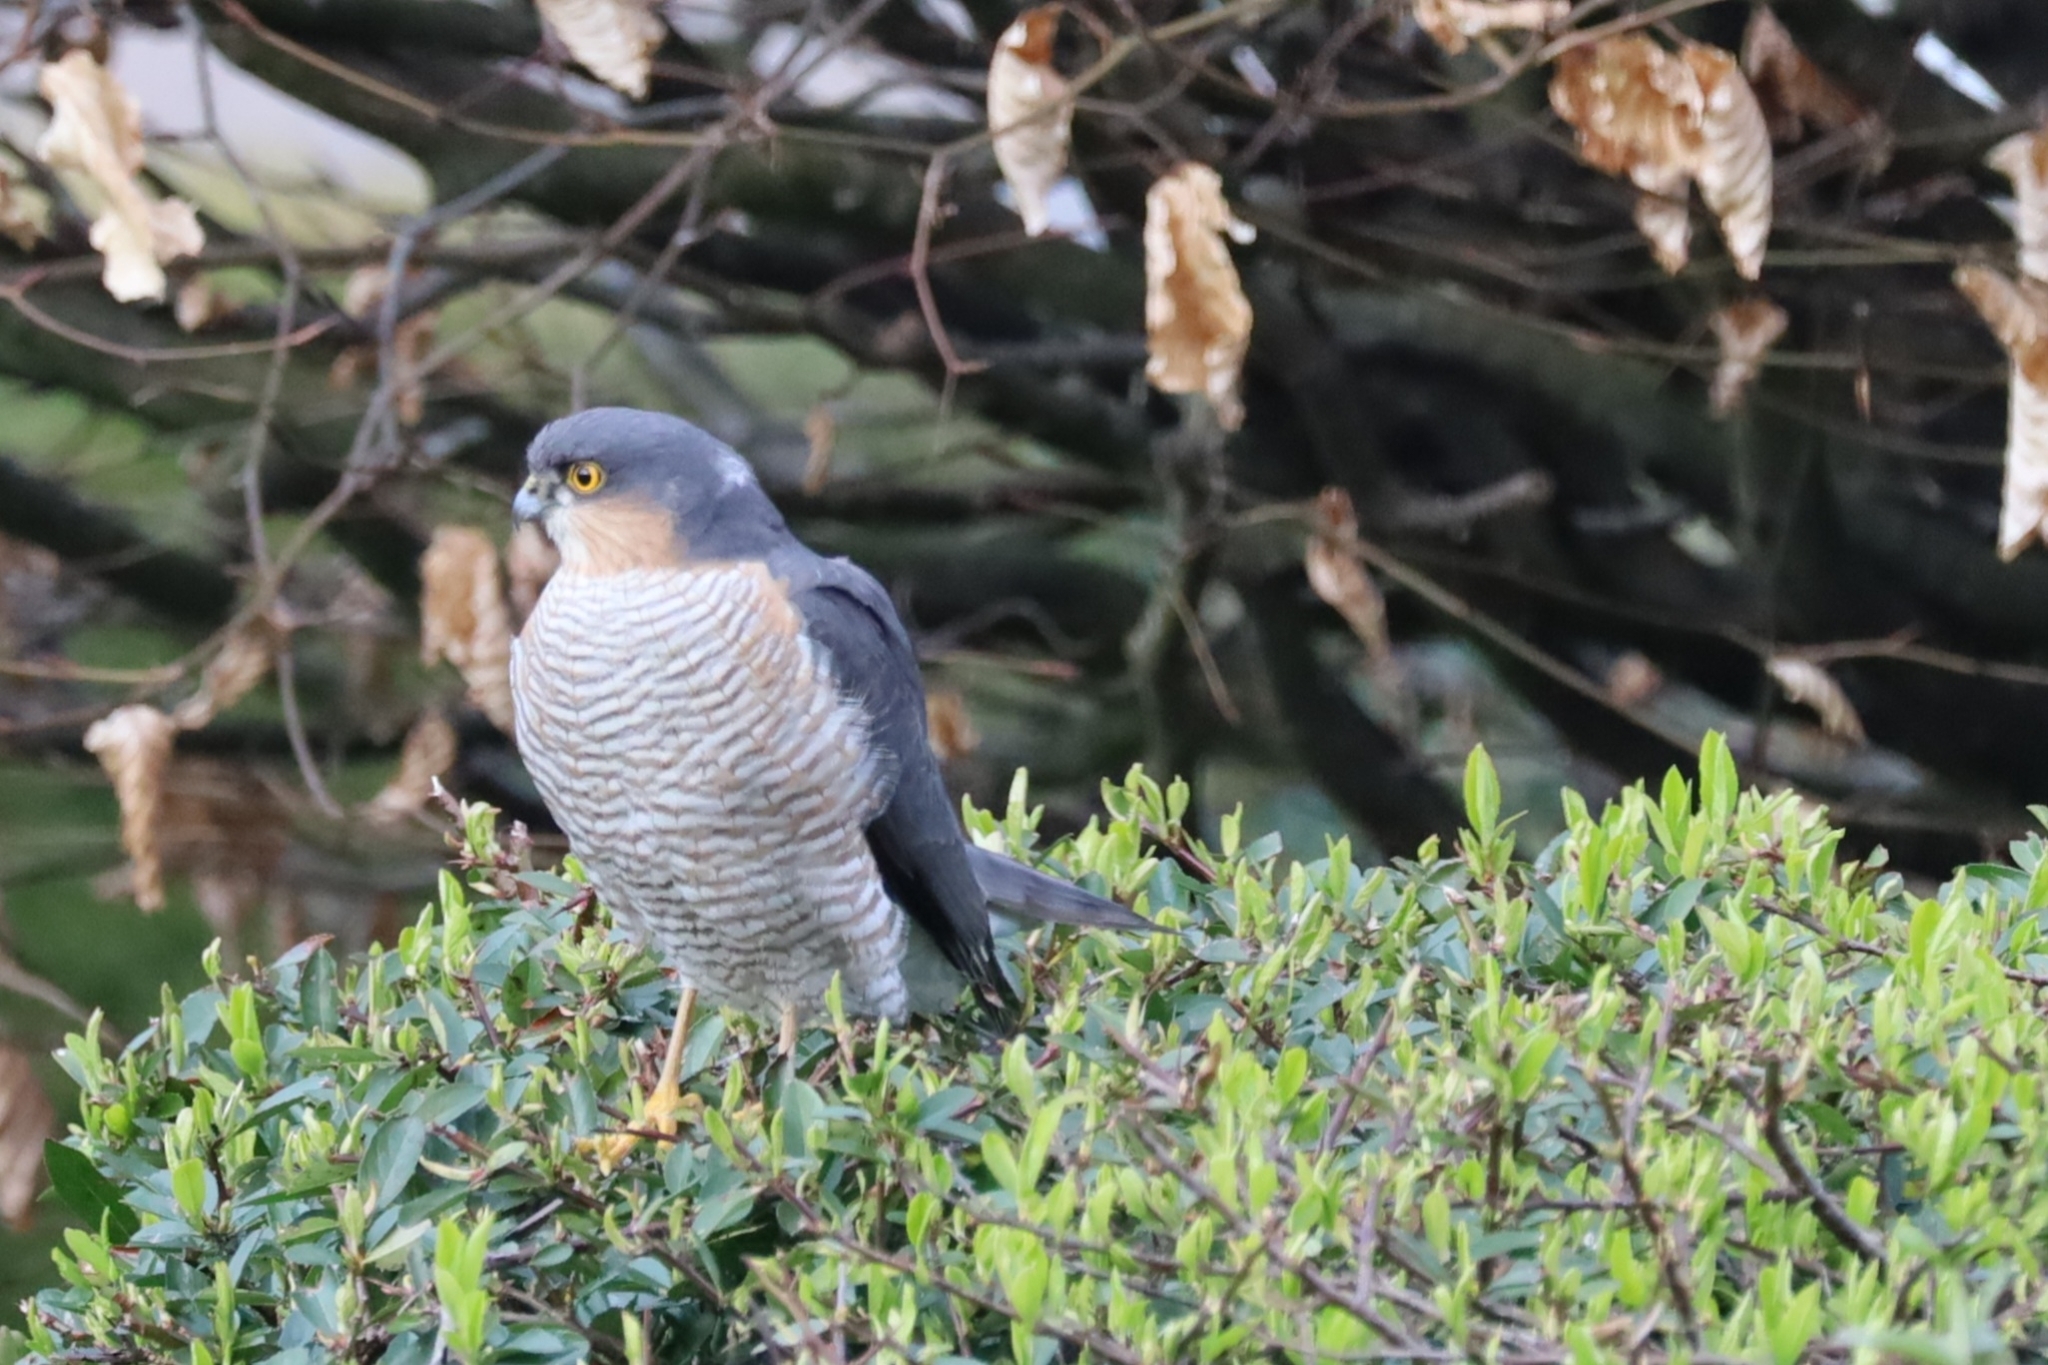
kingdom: Animalia
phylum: Chordata
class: Aves
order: Accipitriformes
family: Accipitridae
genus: Accipiter
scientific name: Accipiter nisus
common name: Eurasian sparrowhawk
